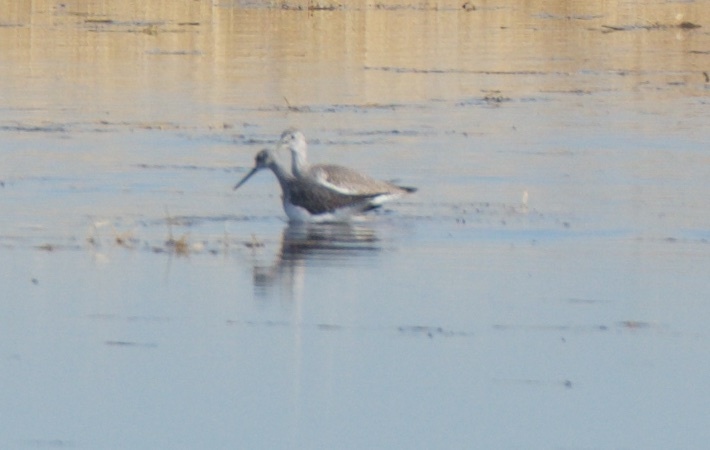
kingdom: Animalia
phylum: Chordata
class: Aves
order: Charadriiformes
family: Scolopacidae
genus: Tringa
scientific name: Tringa melanoleuca
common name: Greater yellowlegs
